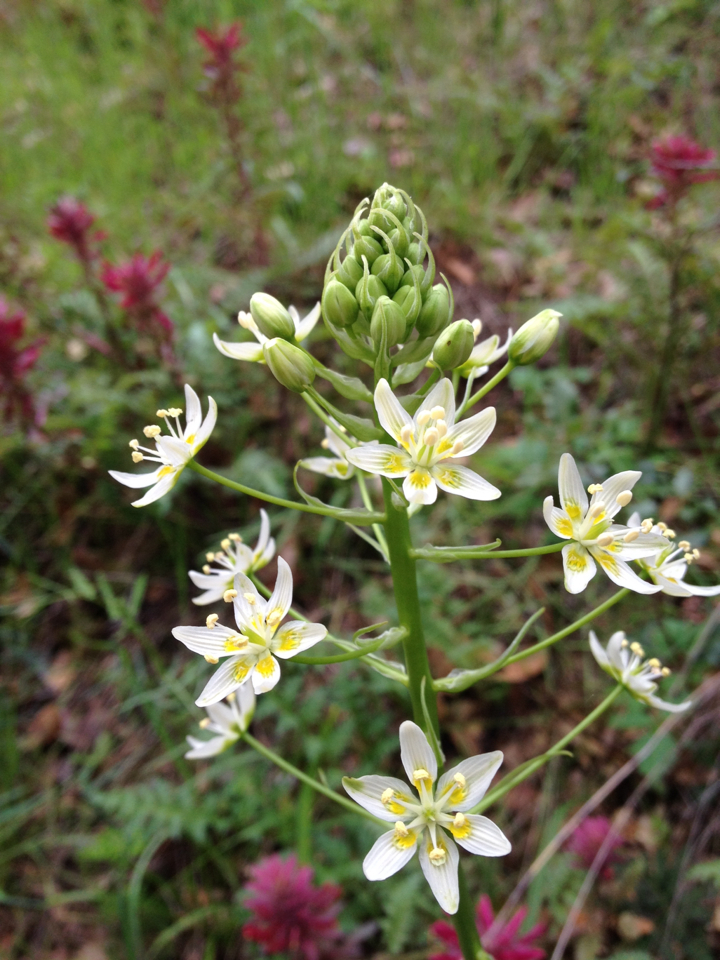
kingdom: Plantae
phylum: Tracheophyta
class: Liliopsida
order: Liliales
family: Melanthiaceae
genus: Toxicoscordion
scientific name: Toxicoscordion fremontii
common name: Fremont's death camas
